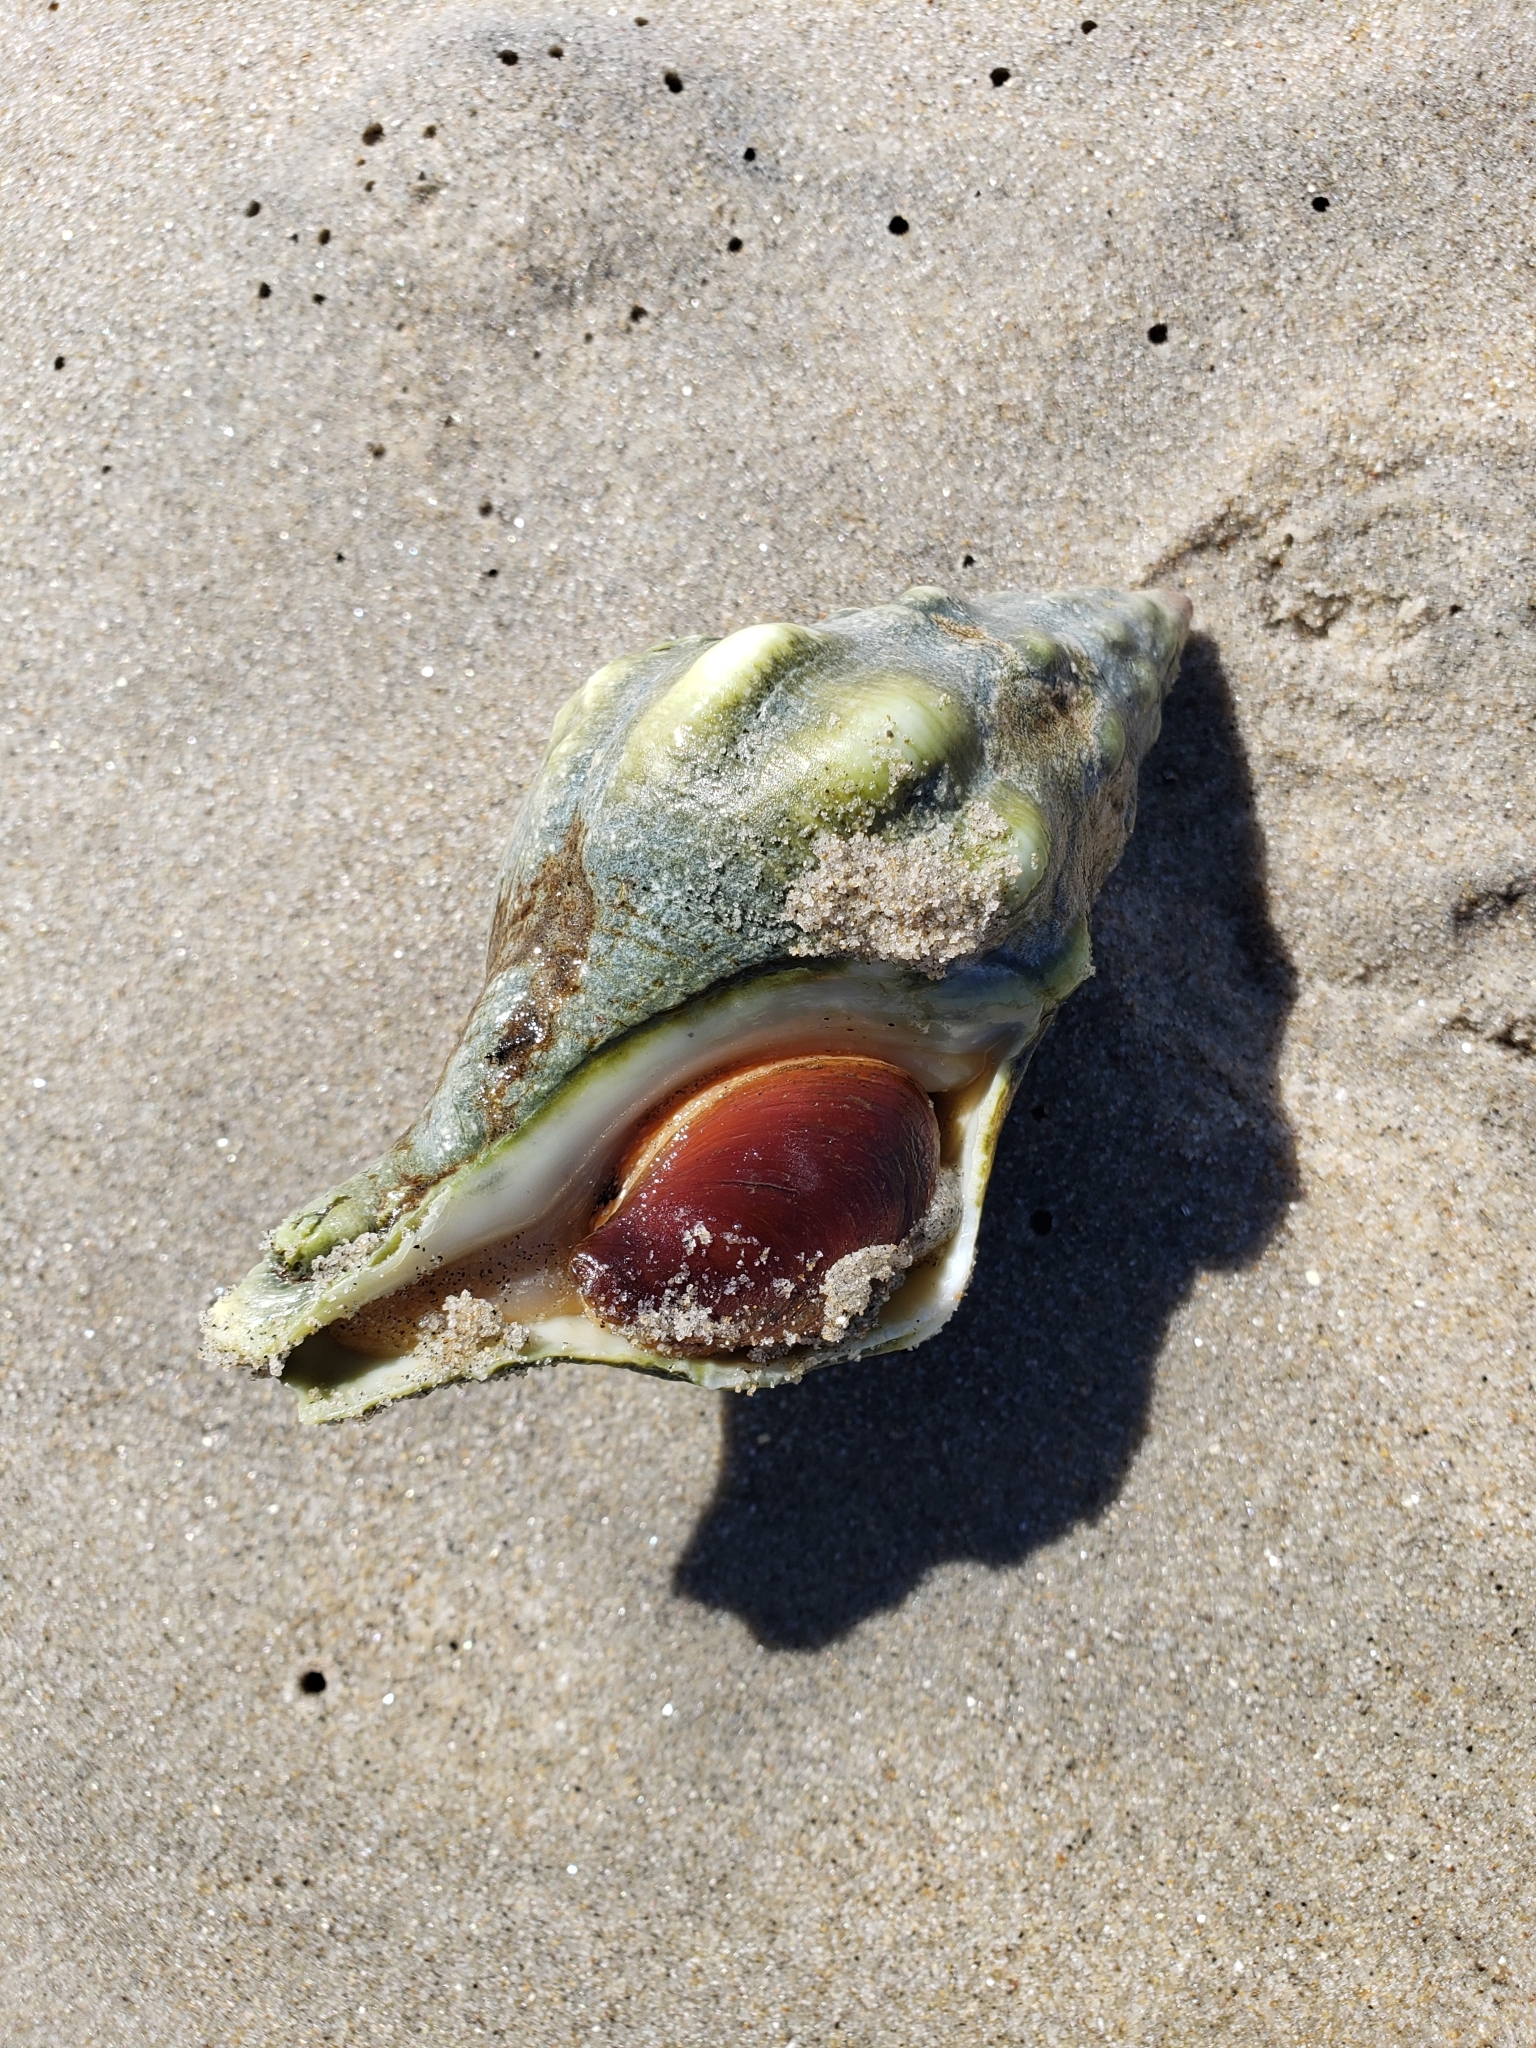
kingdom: Animalia
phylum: Mollusca
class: Gastropoda
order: Neogastropoda
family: Austrosiphonidae
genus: Kelletia
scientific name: Kelletia kelletii
